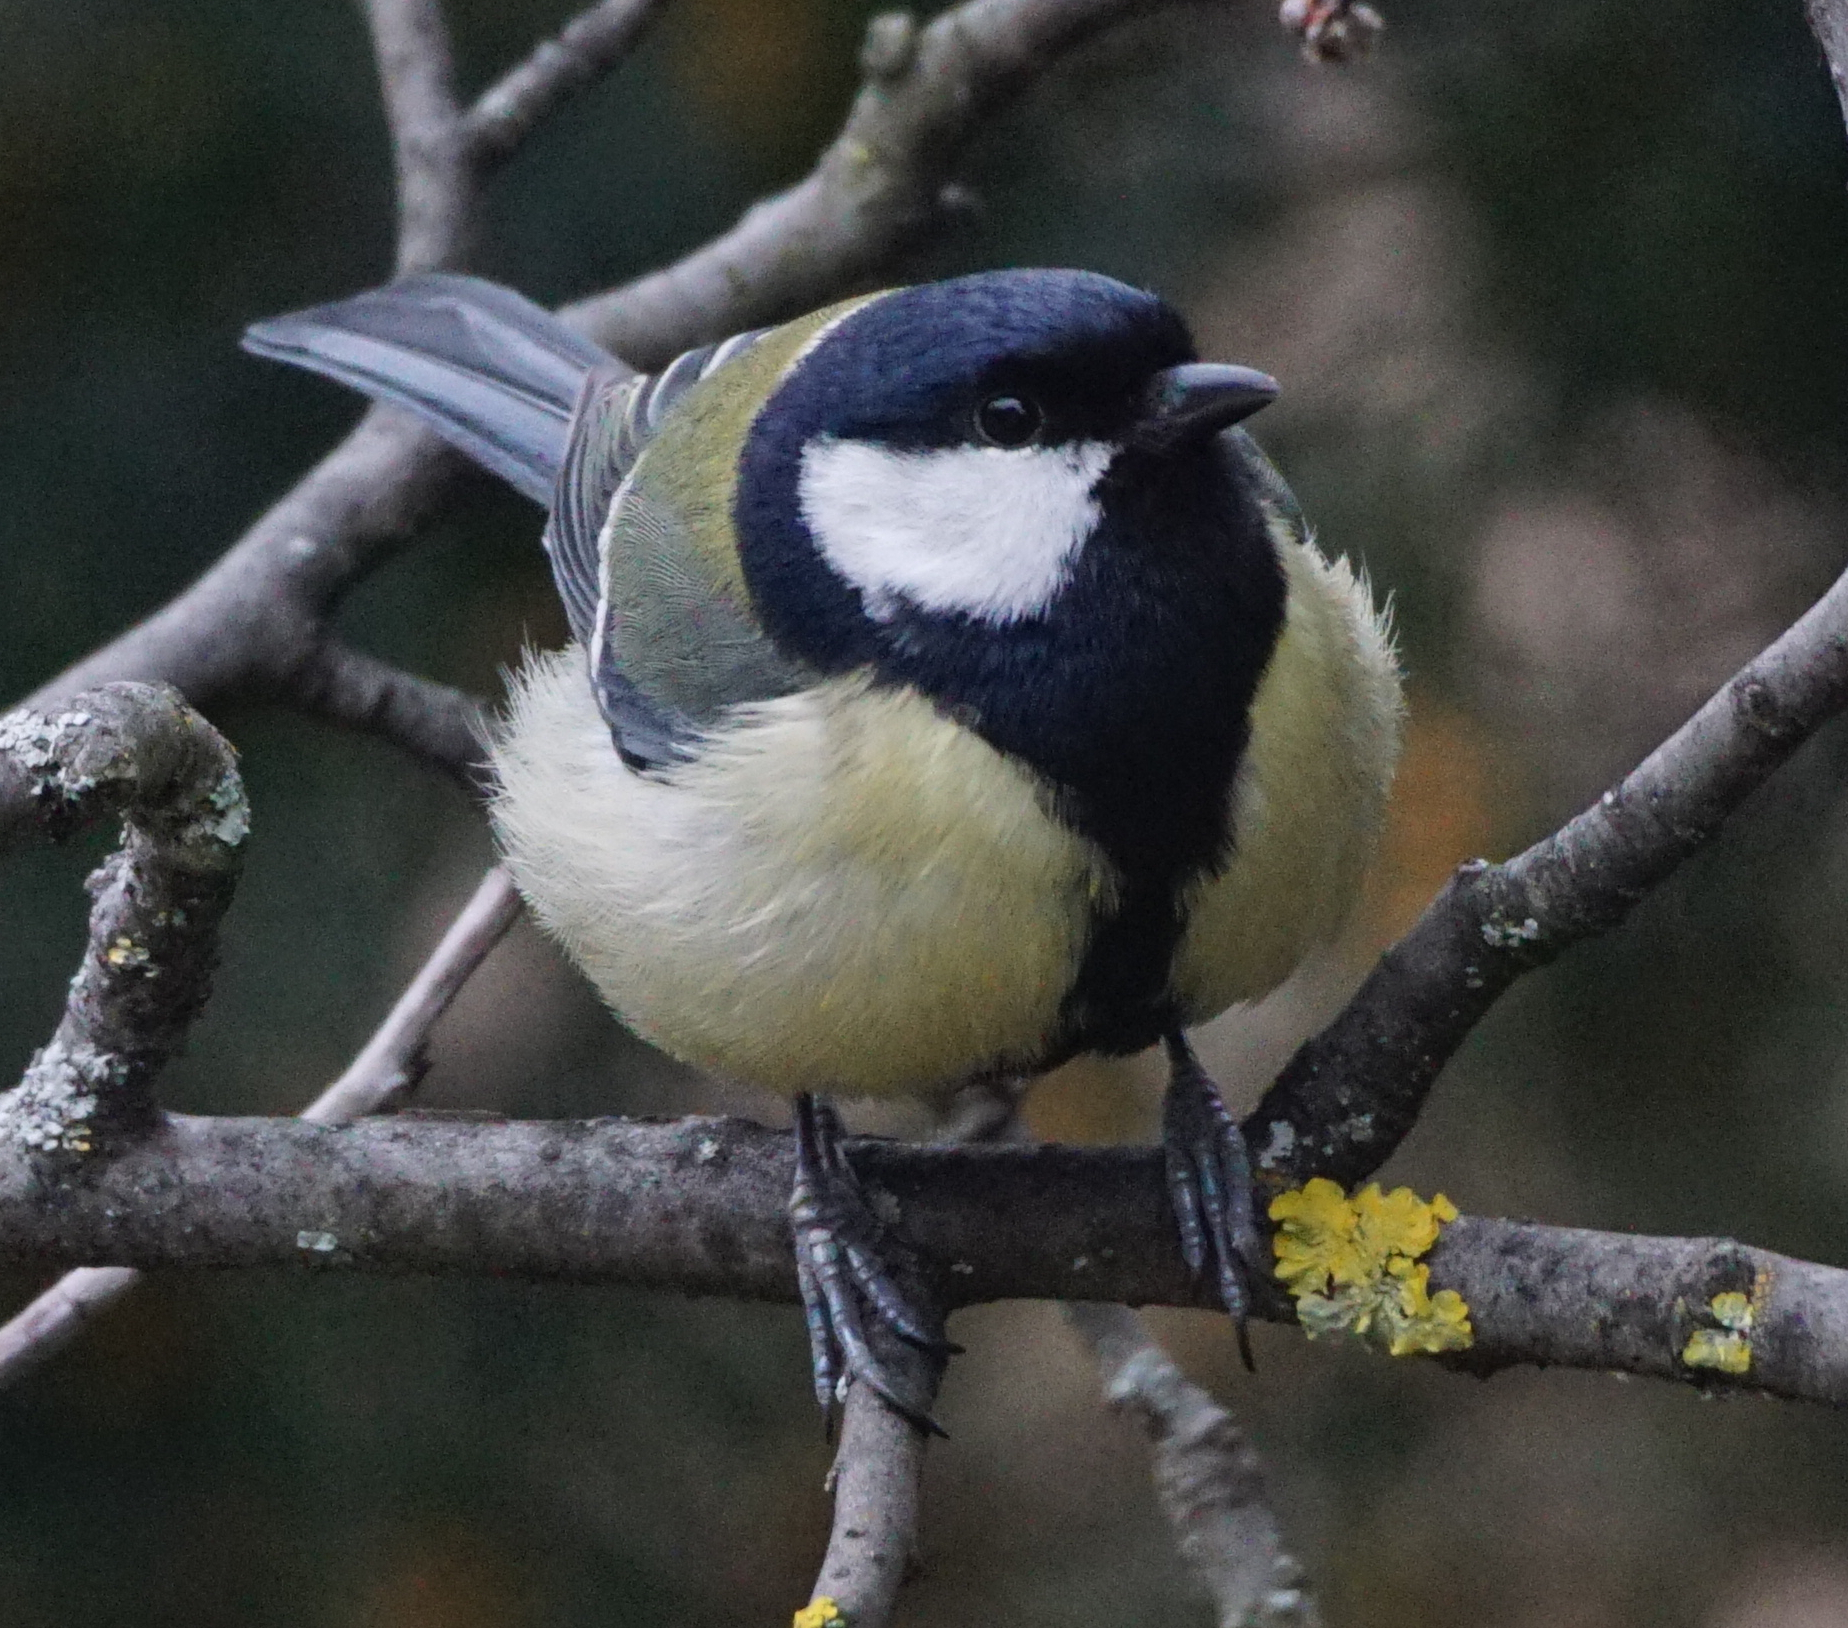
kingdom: Animalia
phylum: Chordata
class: Aves
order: Passeriformes
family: Paridae
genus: Parus
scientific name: Parus major
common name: Great tit
